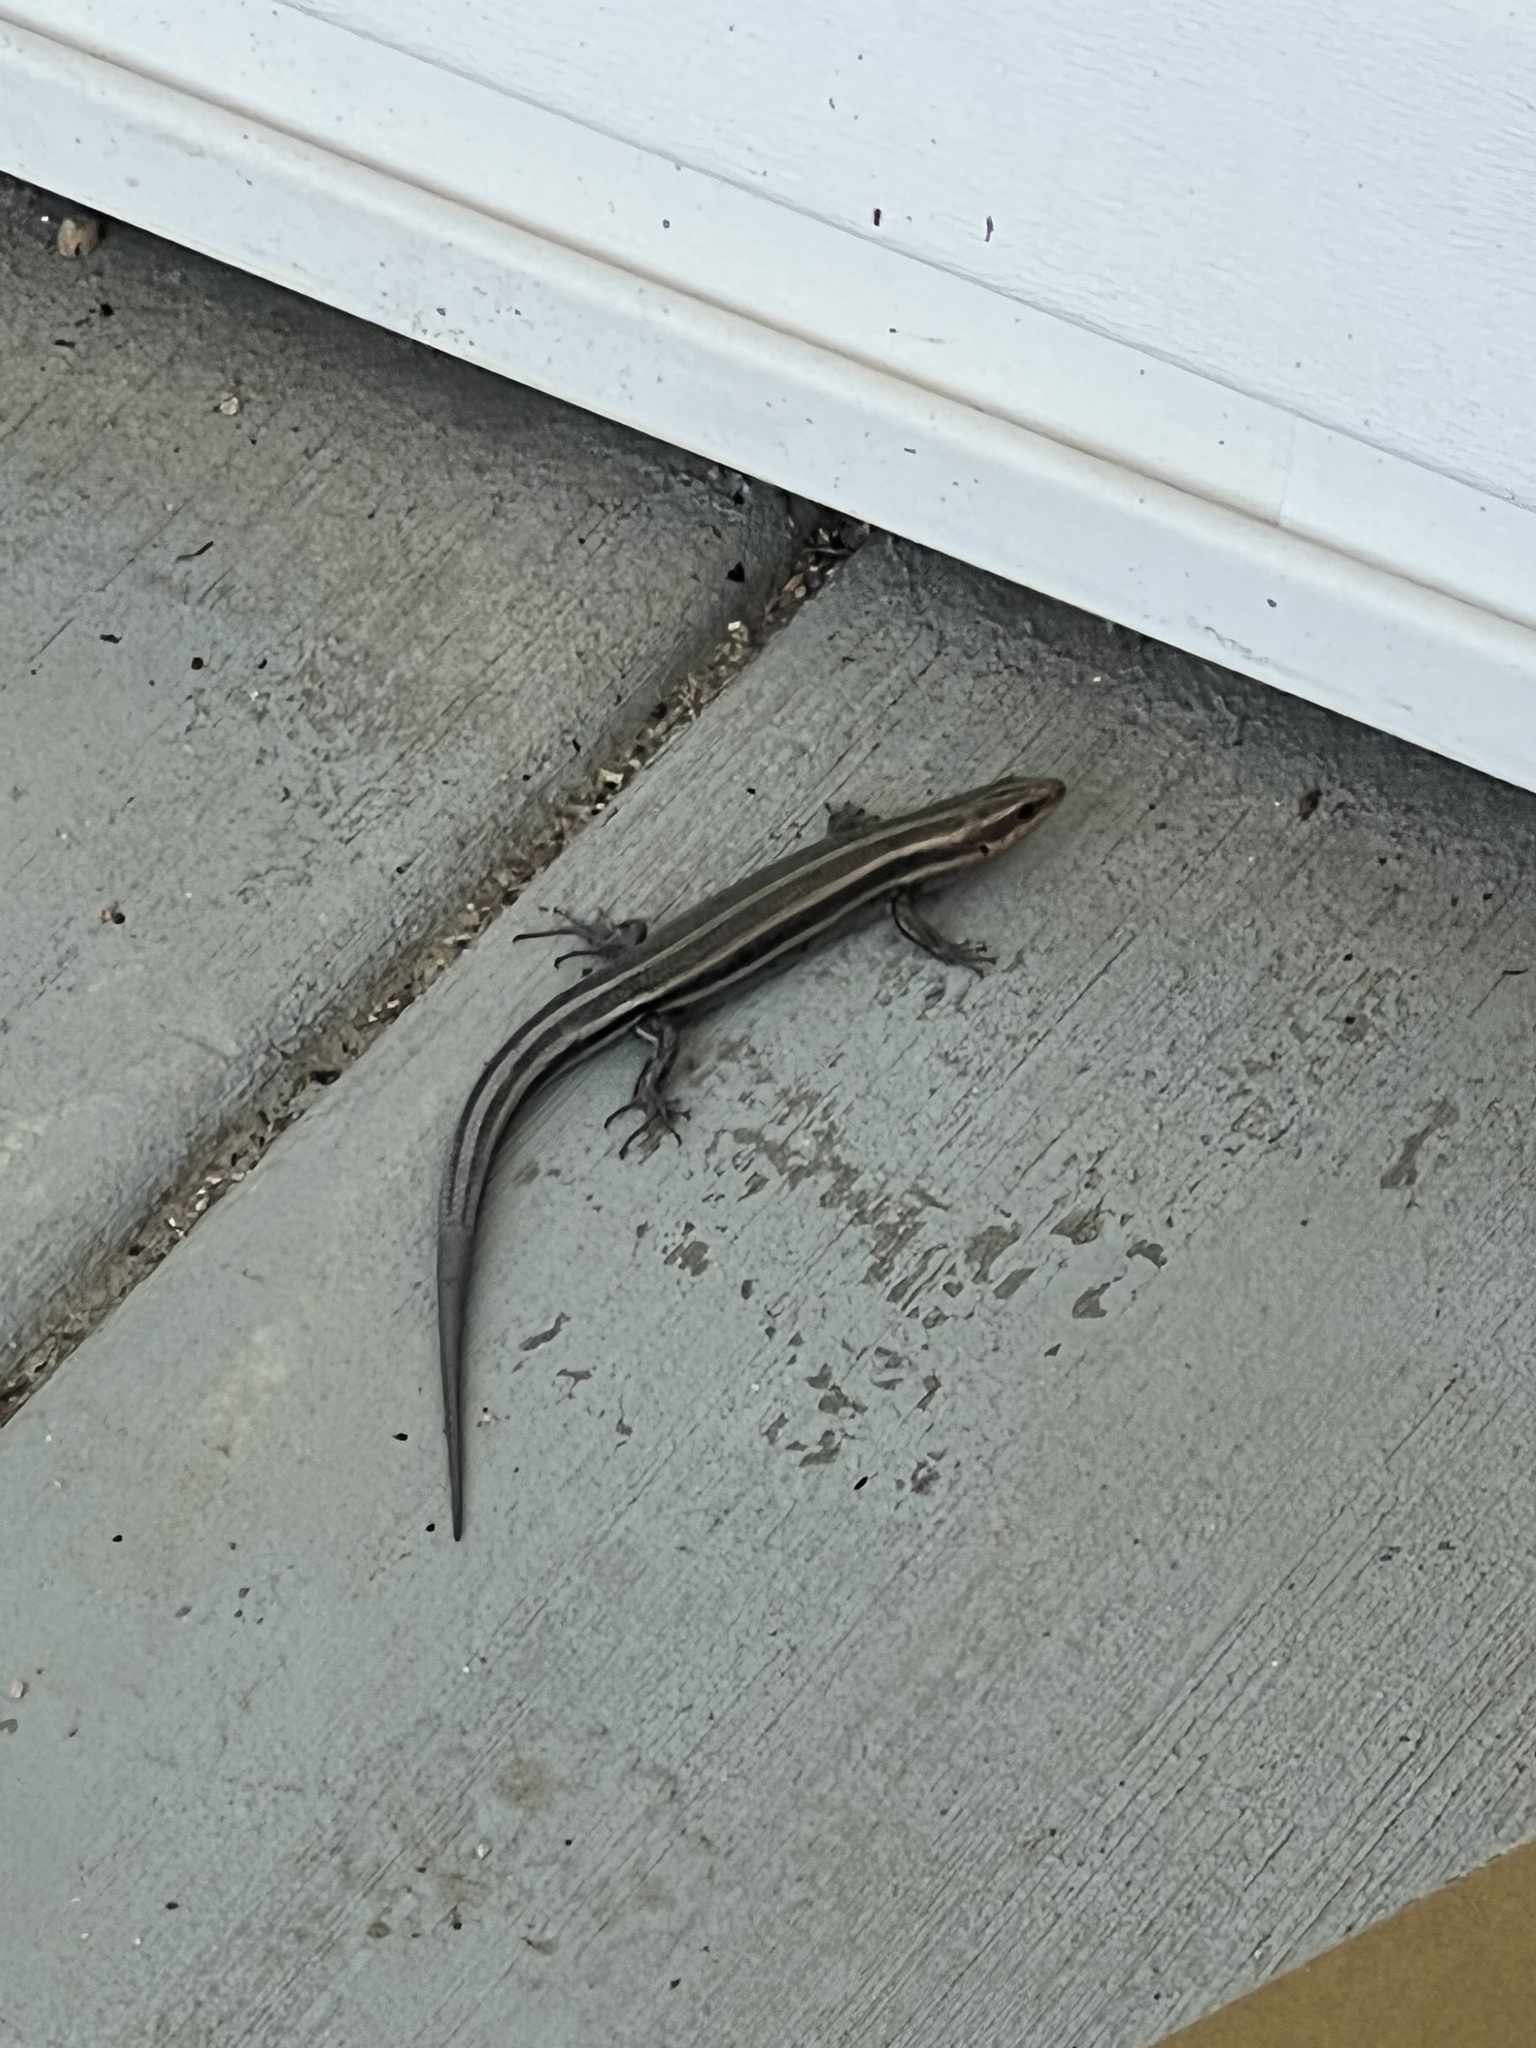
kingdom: Animalia
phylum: Chordata
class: Squamata
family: Scincidae
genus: Plestiodon
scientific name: Plestiodon fasciatus
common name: Five-lined skink
